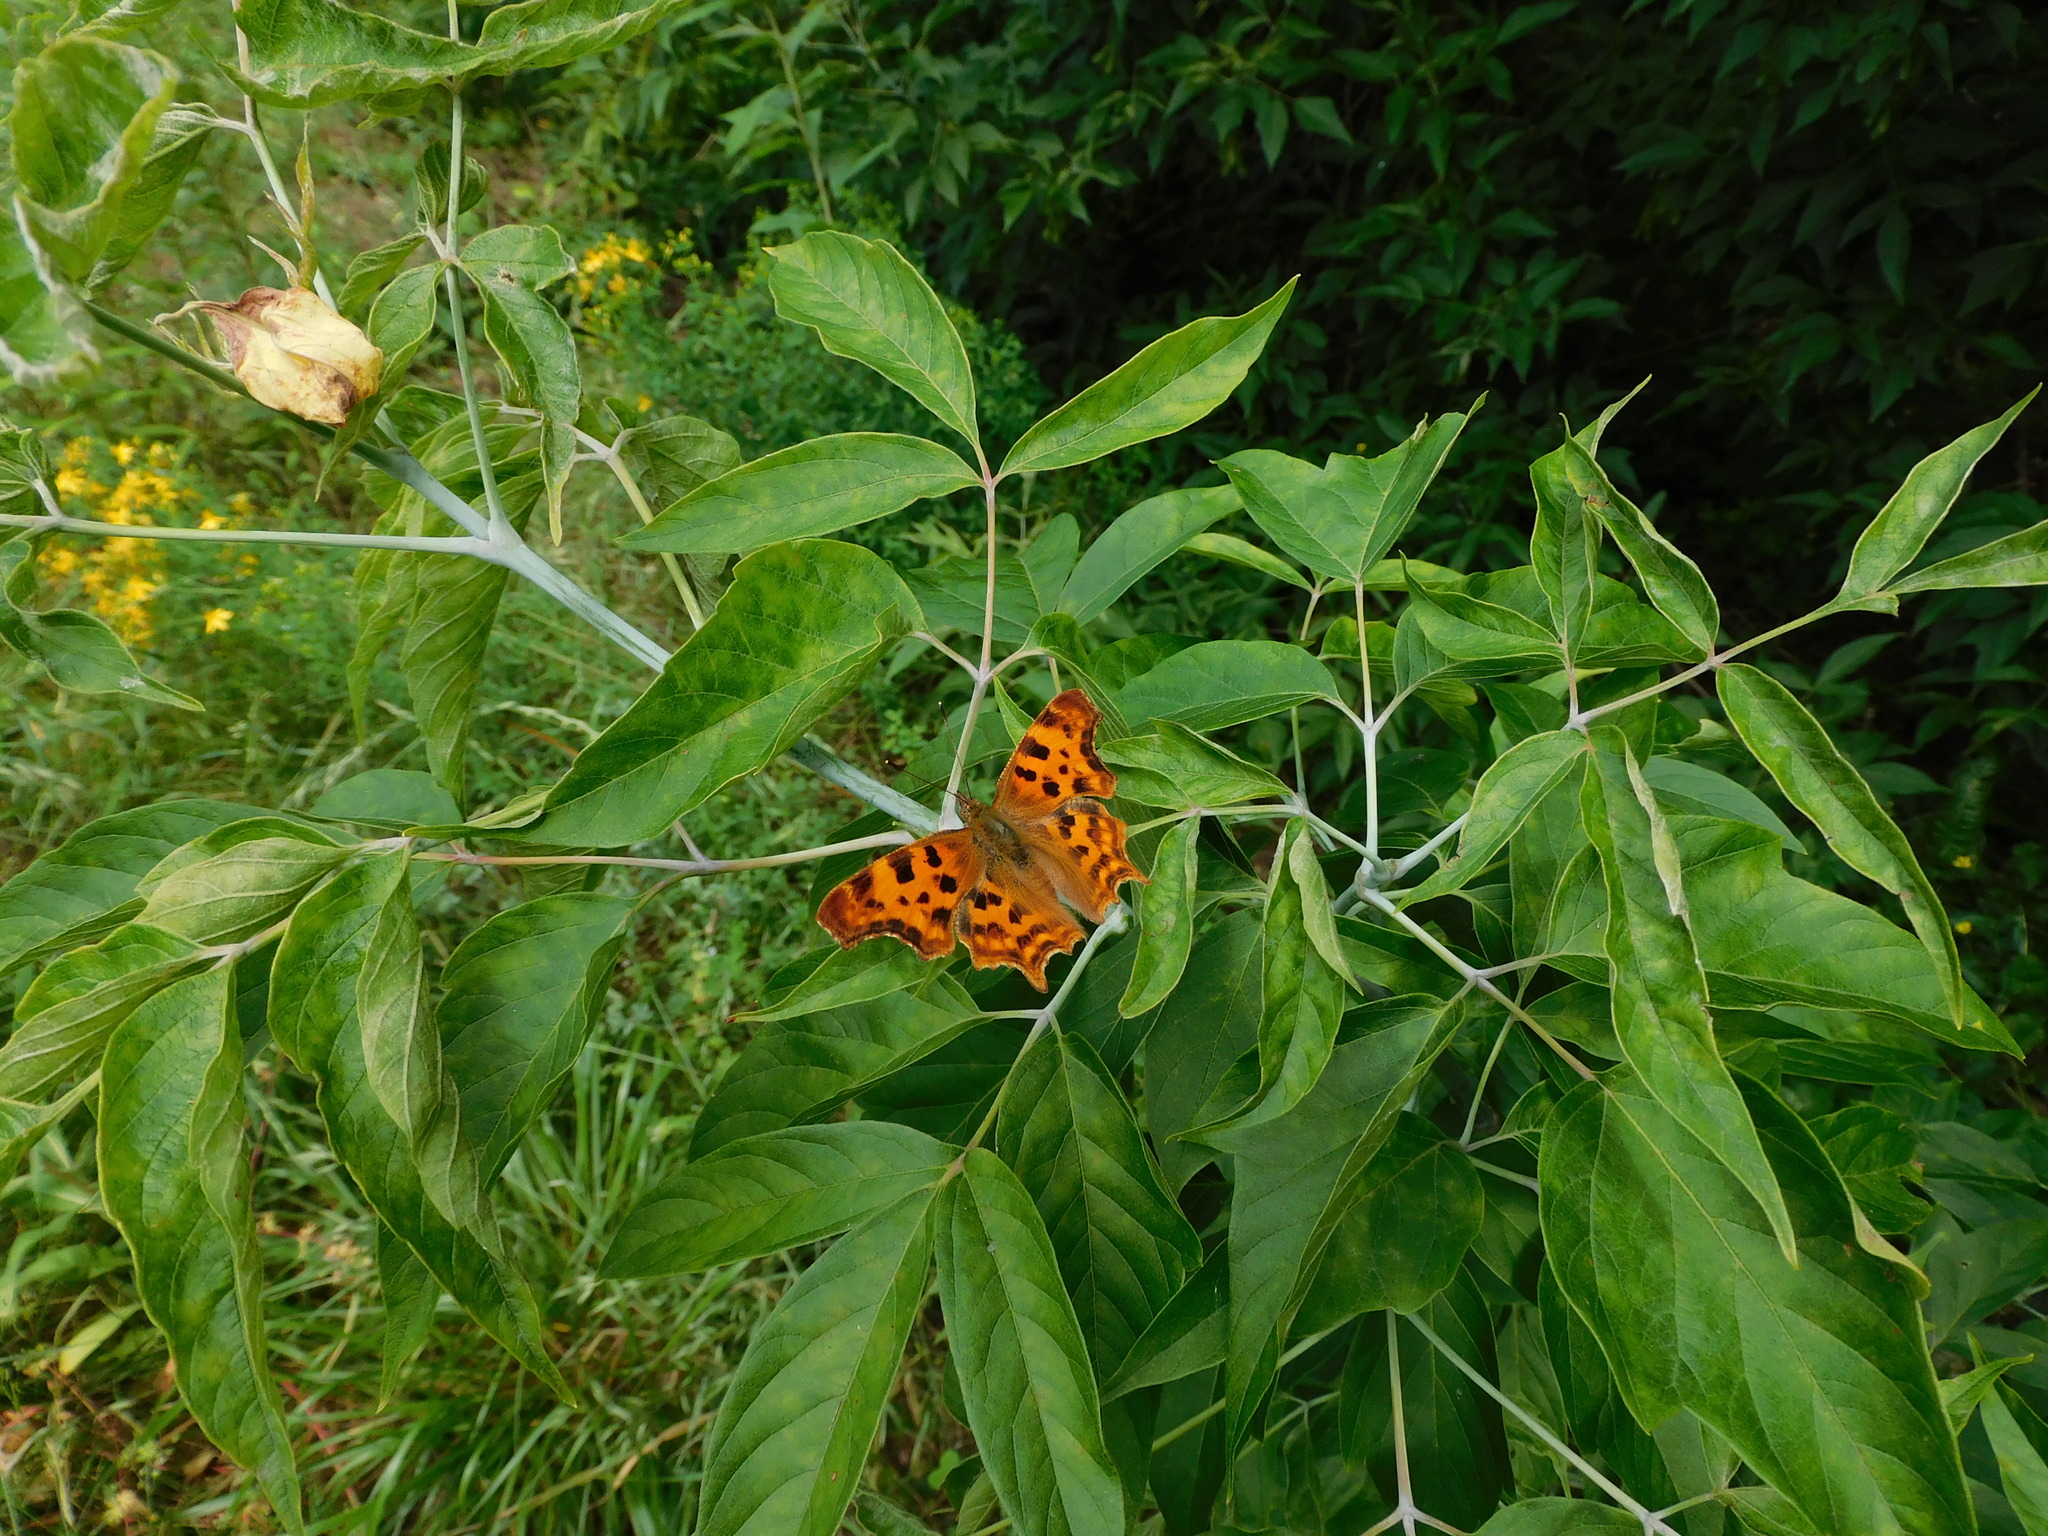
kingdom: Animalia
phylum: Arthropoda
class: Insecta
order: Lepidoptera
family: Nymphalidae
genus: Polygonia
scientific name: Polygonia c-album
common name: Comma
